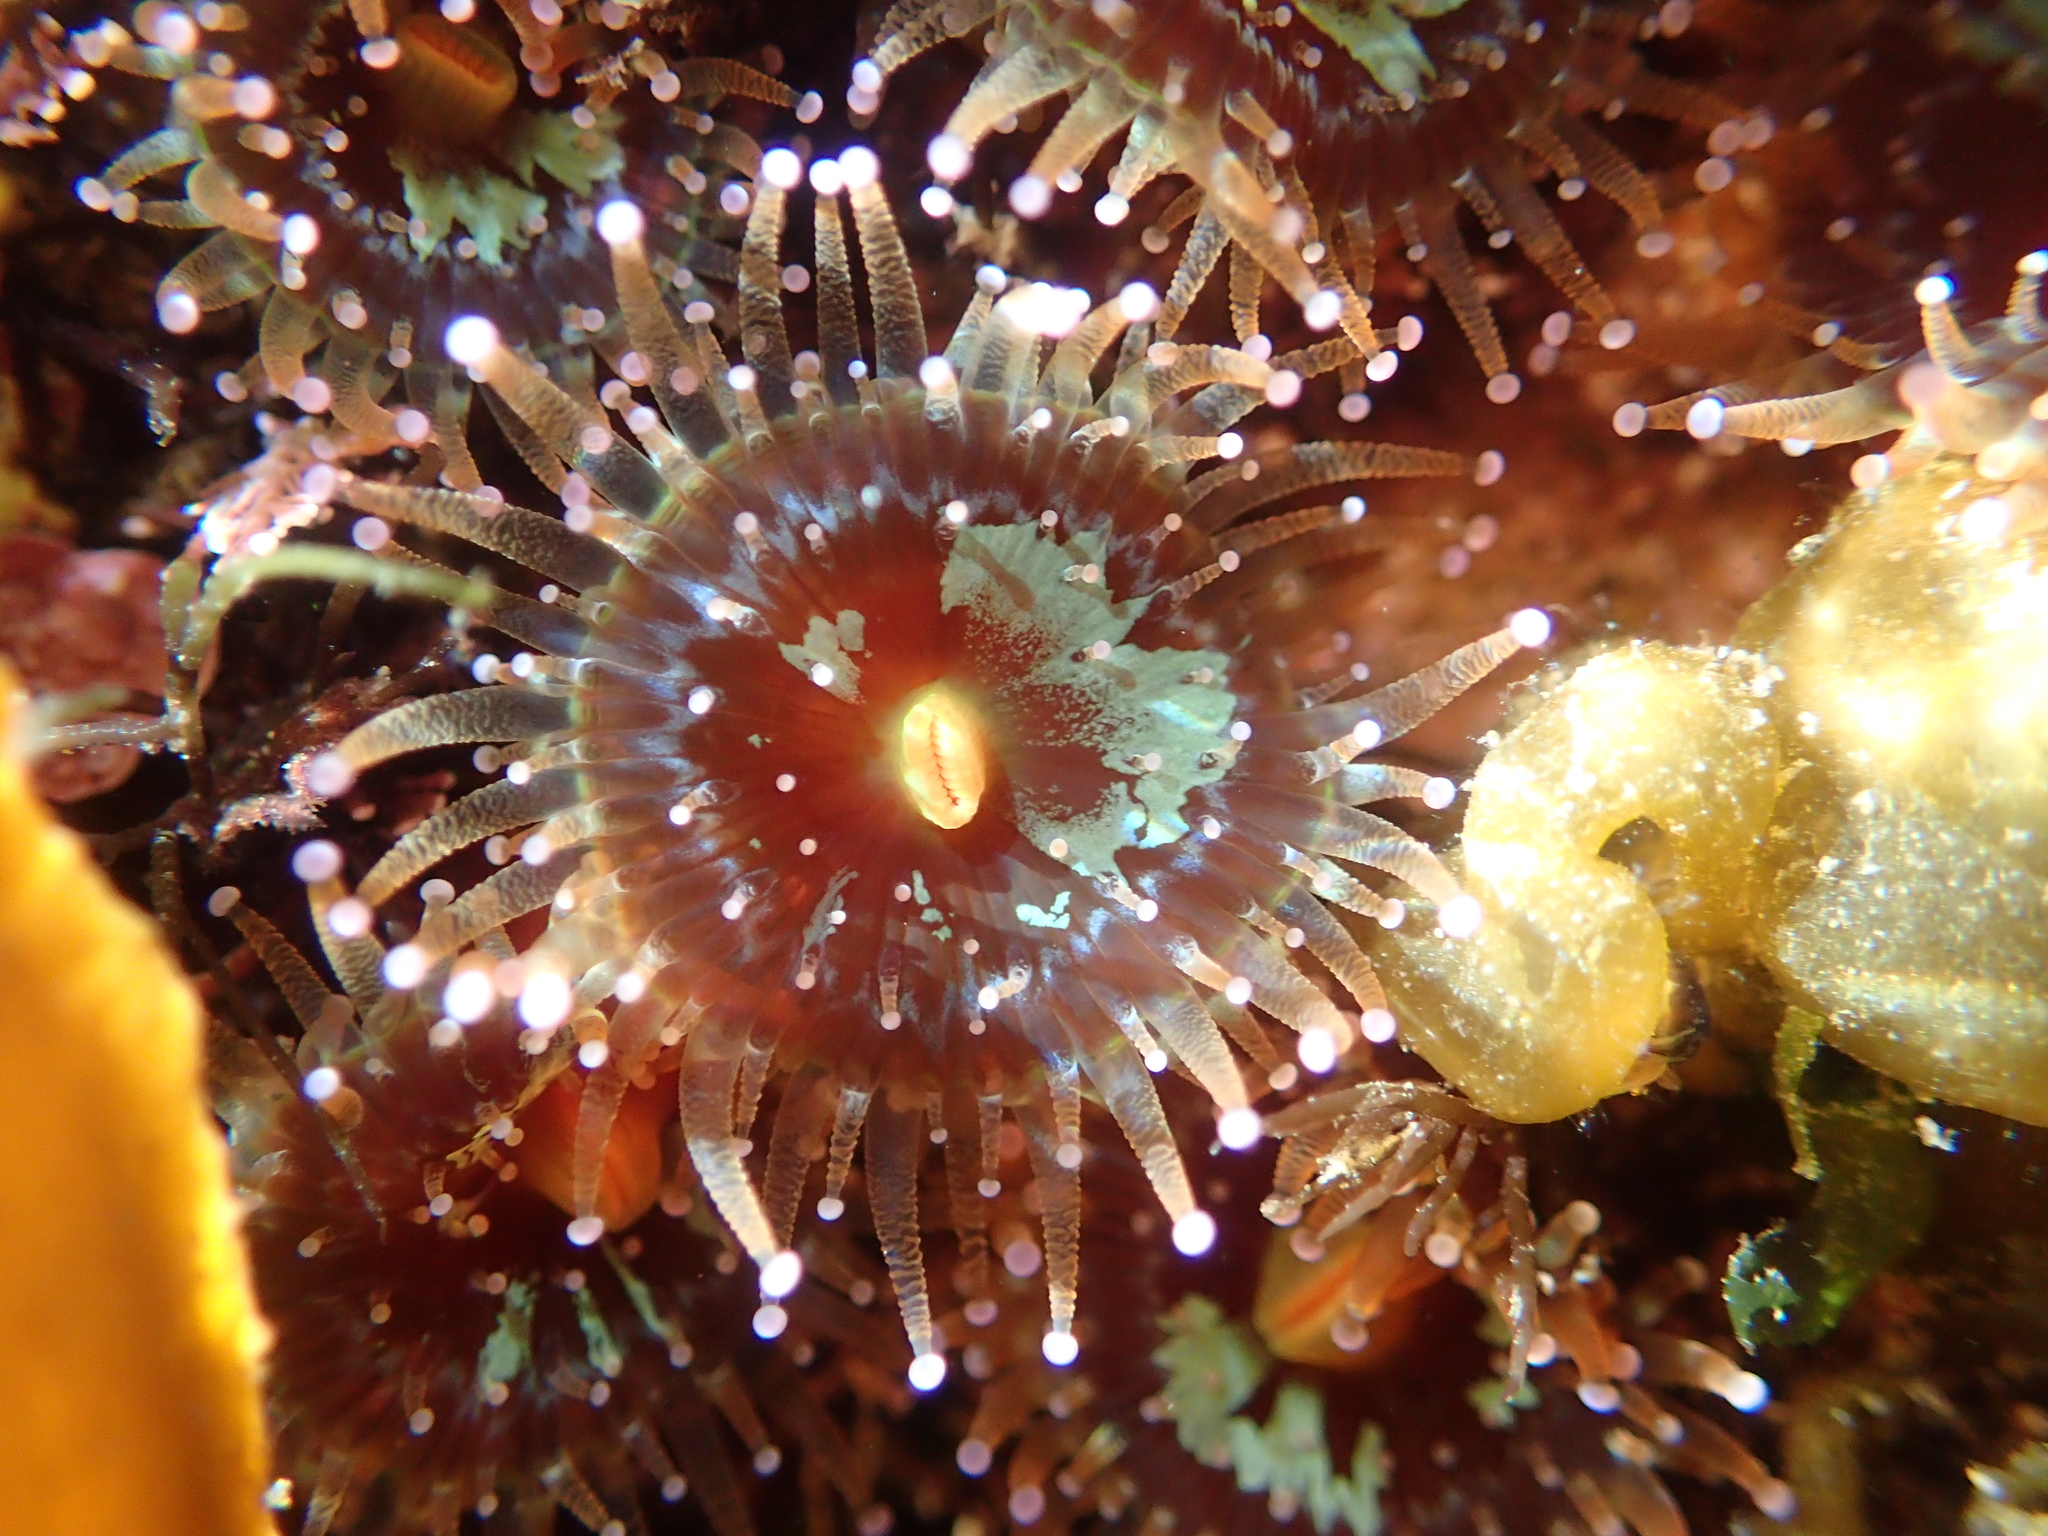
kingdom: Animalia
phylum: Cnidaria
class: Anthozoa
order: Corallimorpharia
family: Corallimorphidae
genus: Corynactis
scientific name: Corynactis australis
